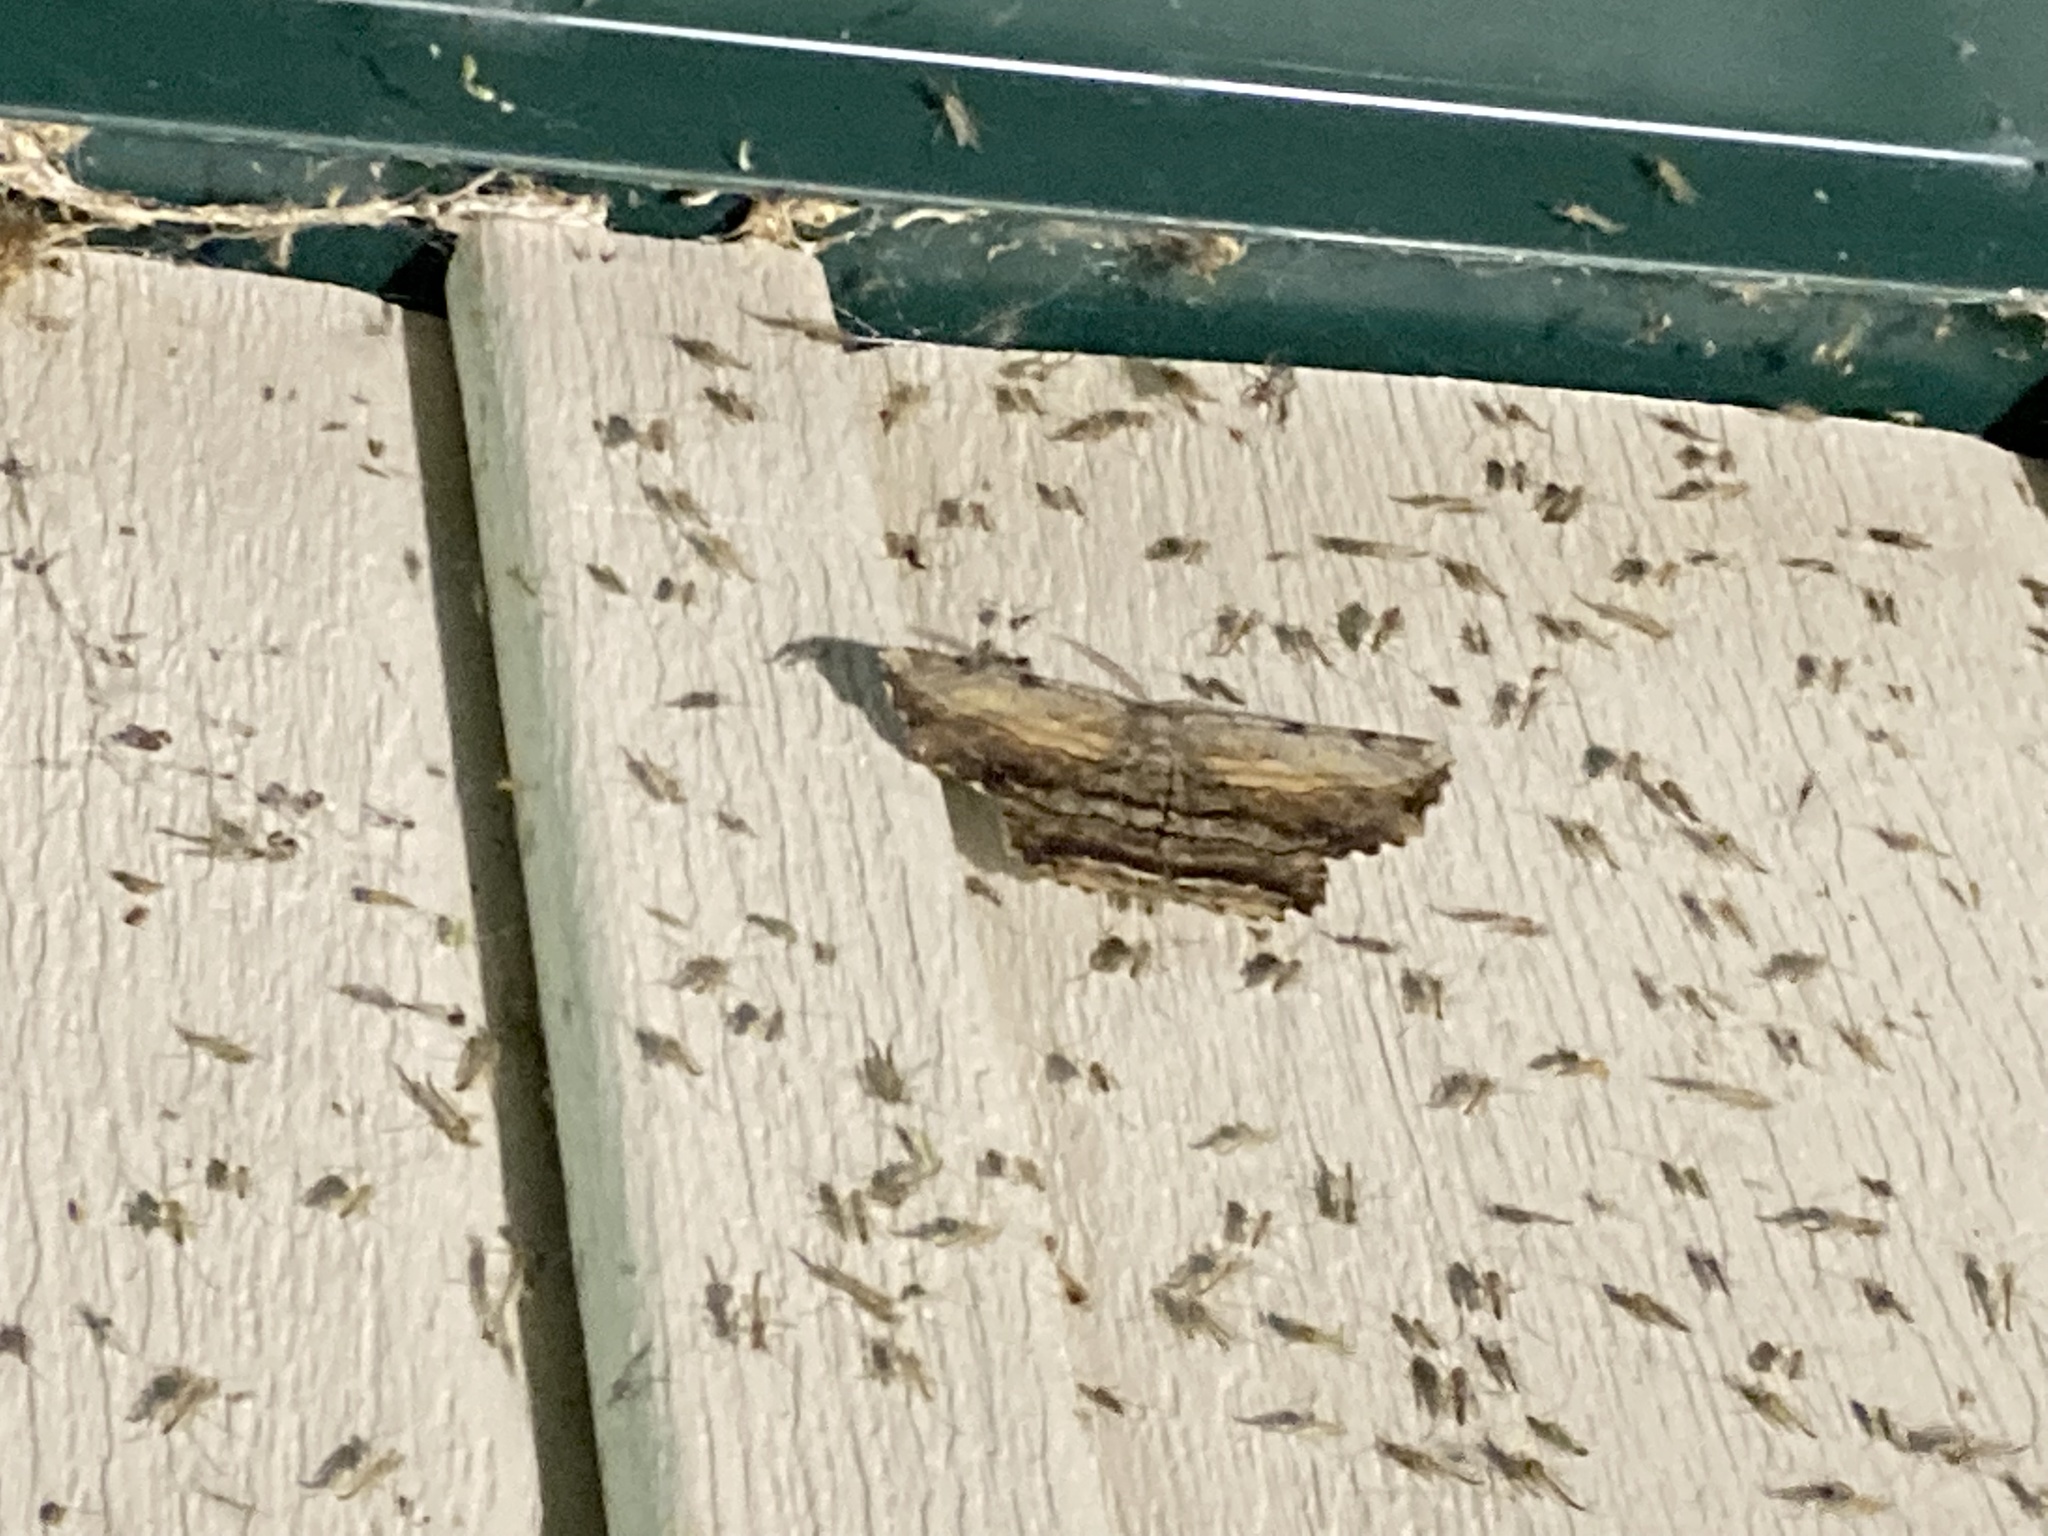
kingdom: Animalia
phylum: Arthropoda
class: Insecta
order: Lepidoptera
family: Geometridae
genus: Lytrosis
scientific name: Lytrosis unitaria
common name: Common lytrosis
